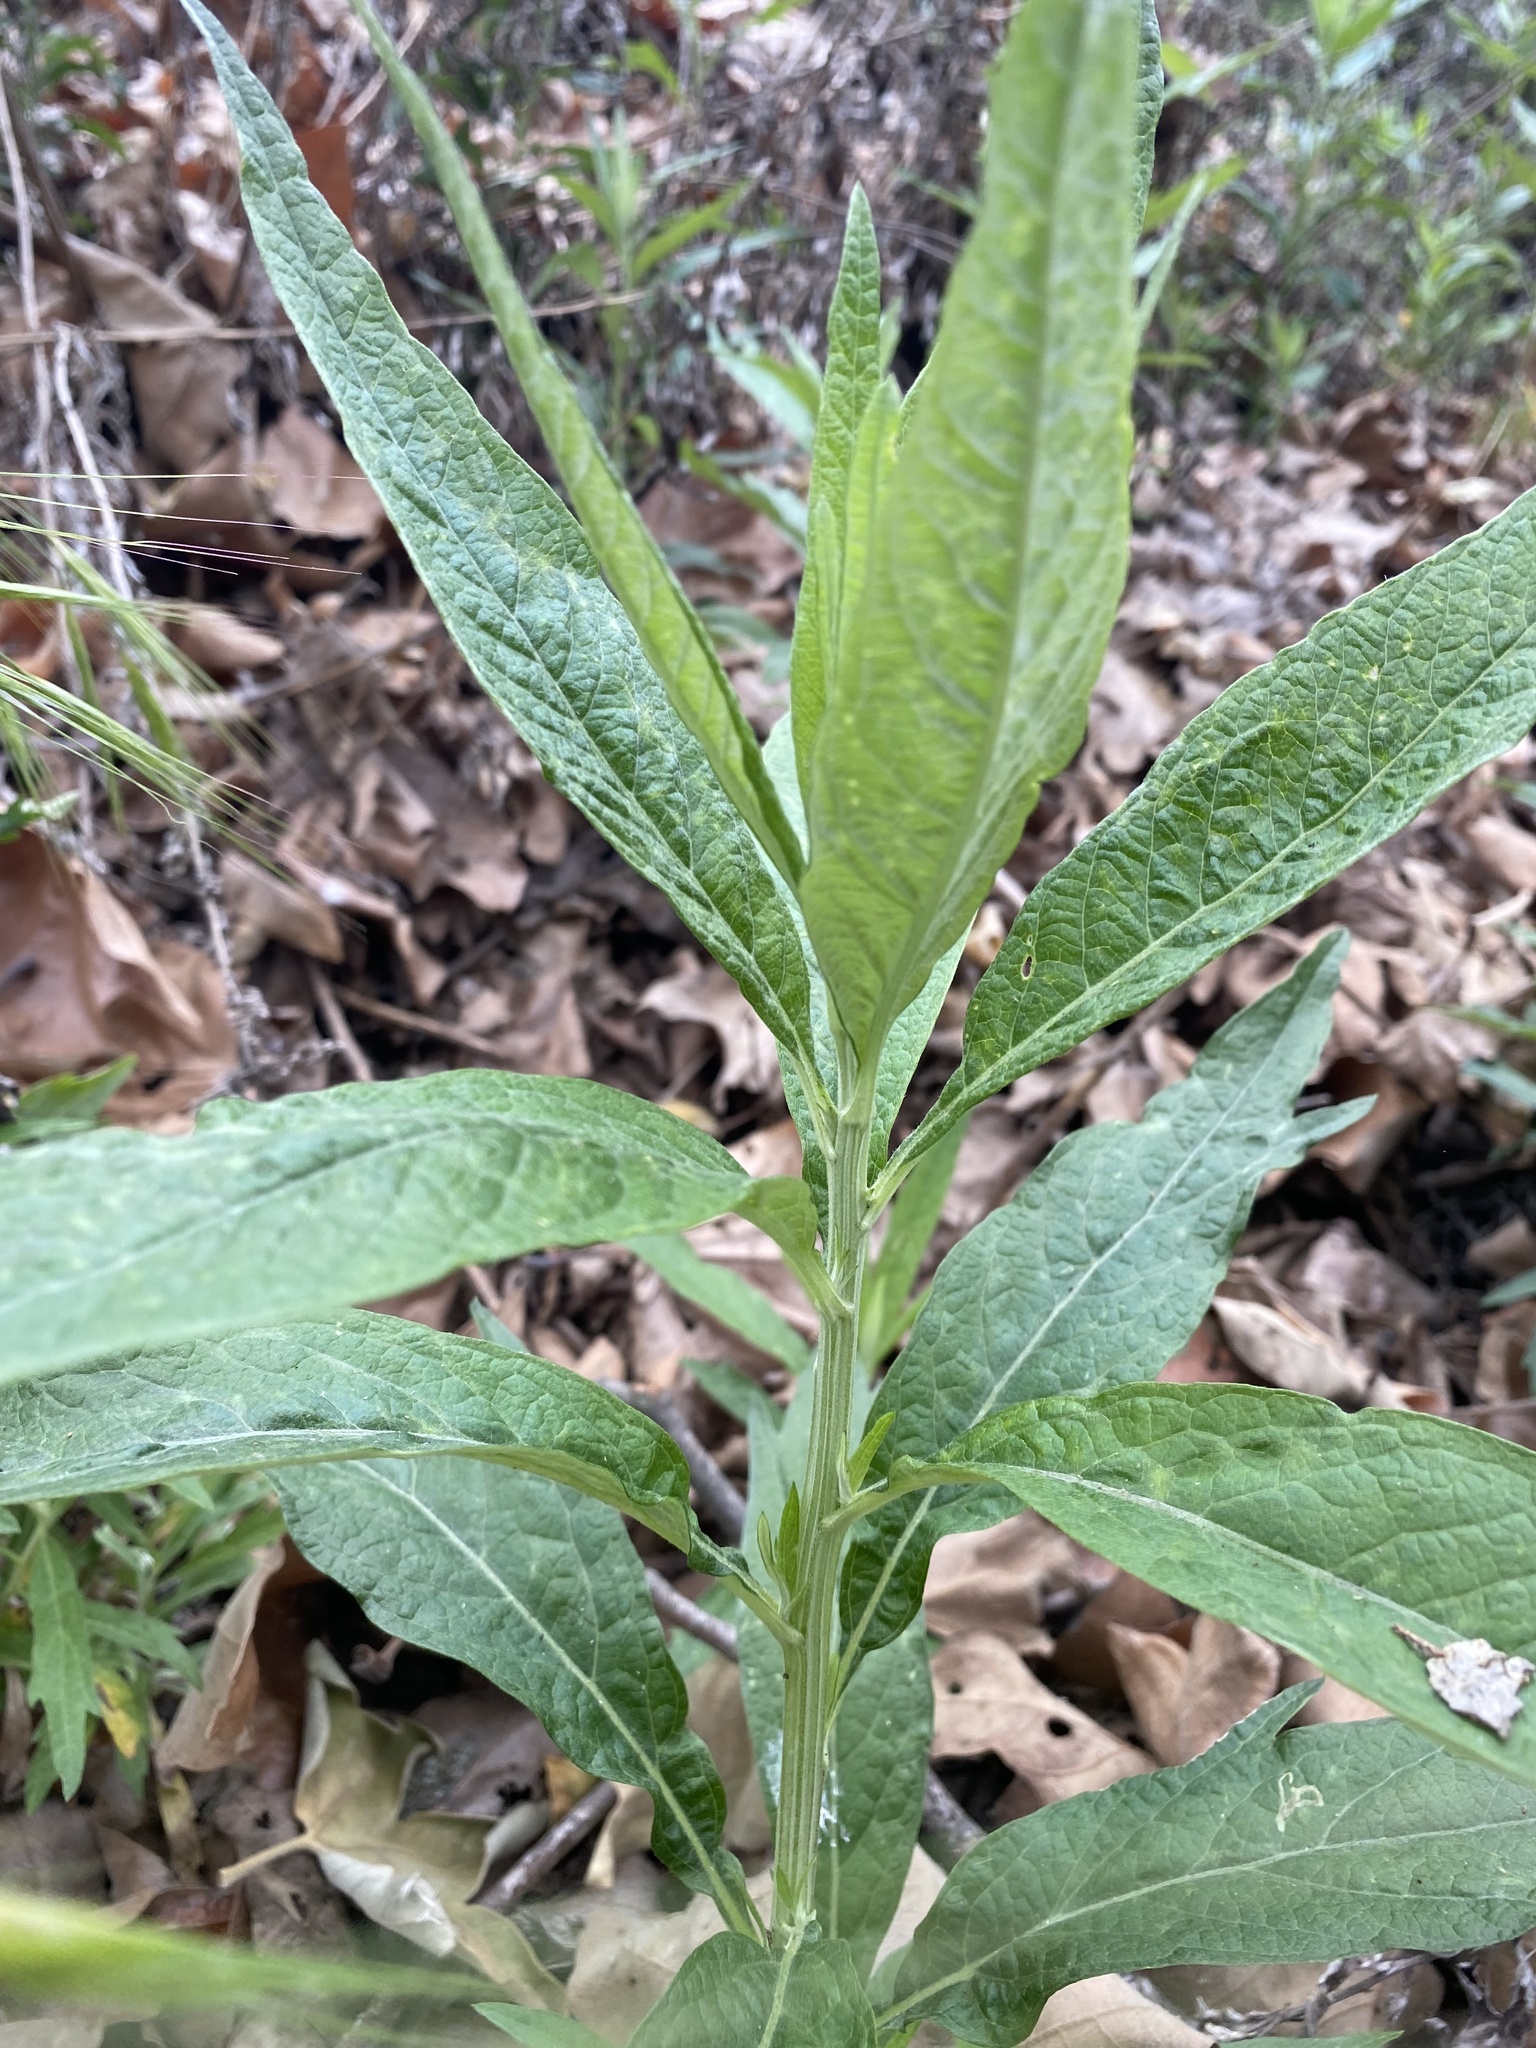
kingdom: Plantae
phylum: Tracheophyta
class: Magnoliopsida
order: Asterales
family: Asteraceae
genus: Artemisia
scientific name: Artemisia douglasiana
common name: Northwest mugwort
